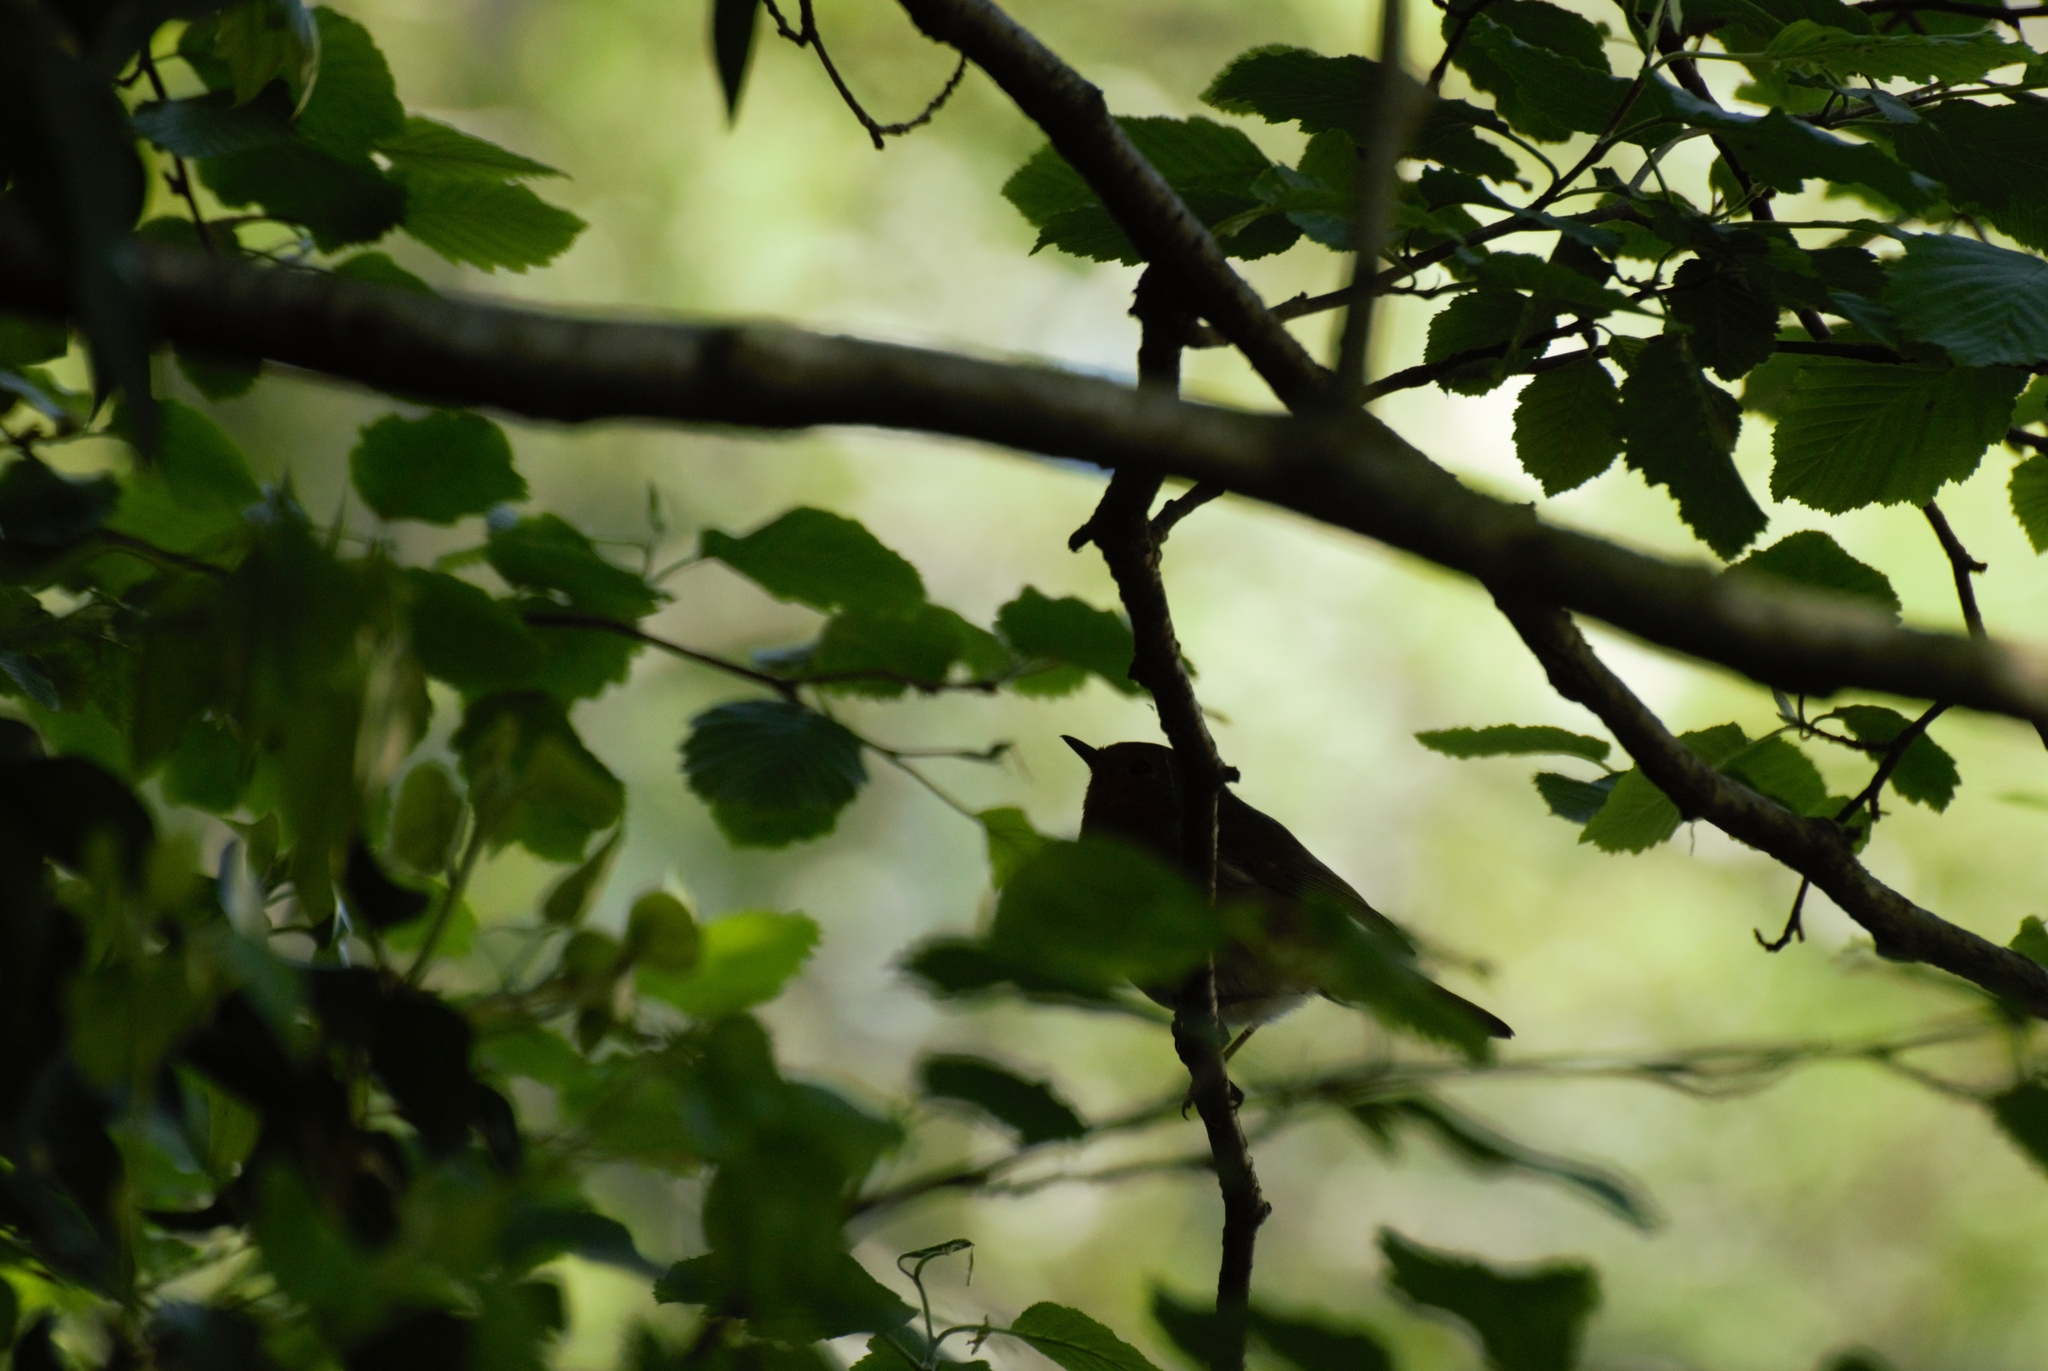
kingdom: Animalia
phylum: Chordata
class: Aves
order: Passeriformes
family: Muscicapidae
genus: Erithacus
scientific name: Erithacus rubecula
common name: European robin
